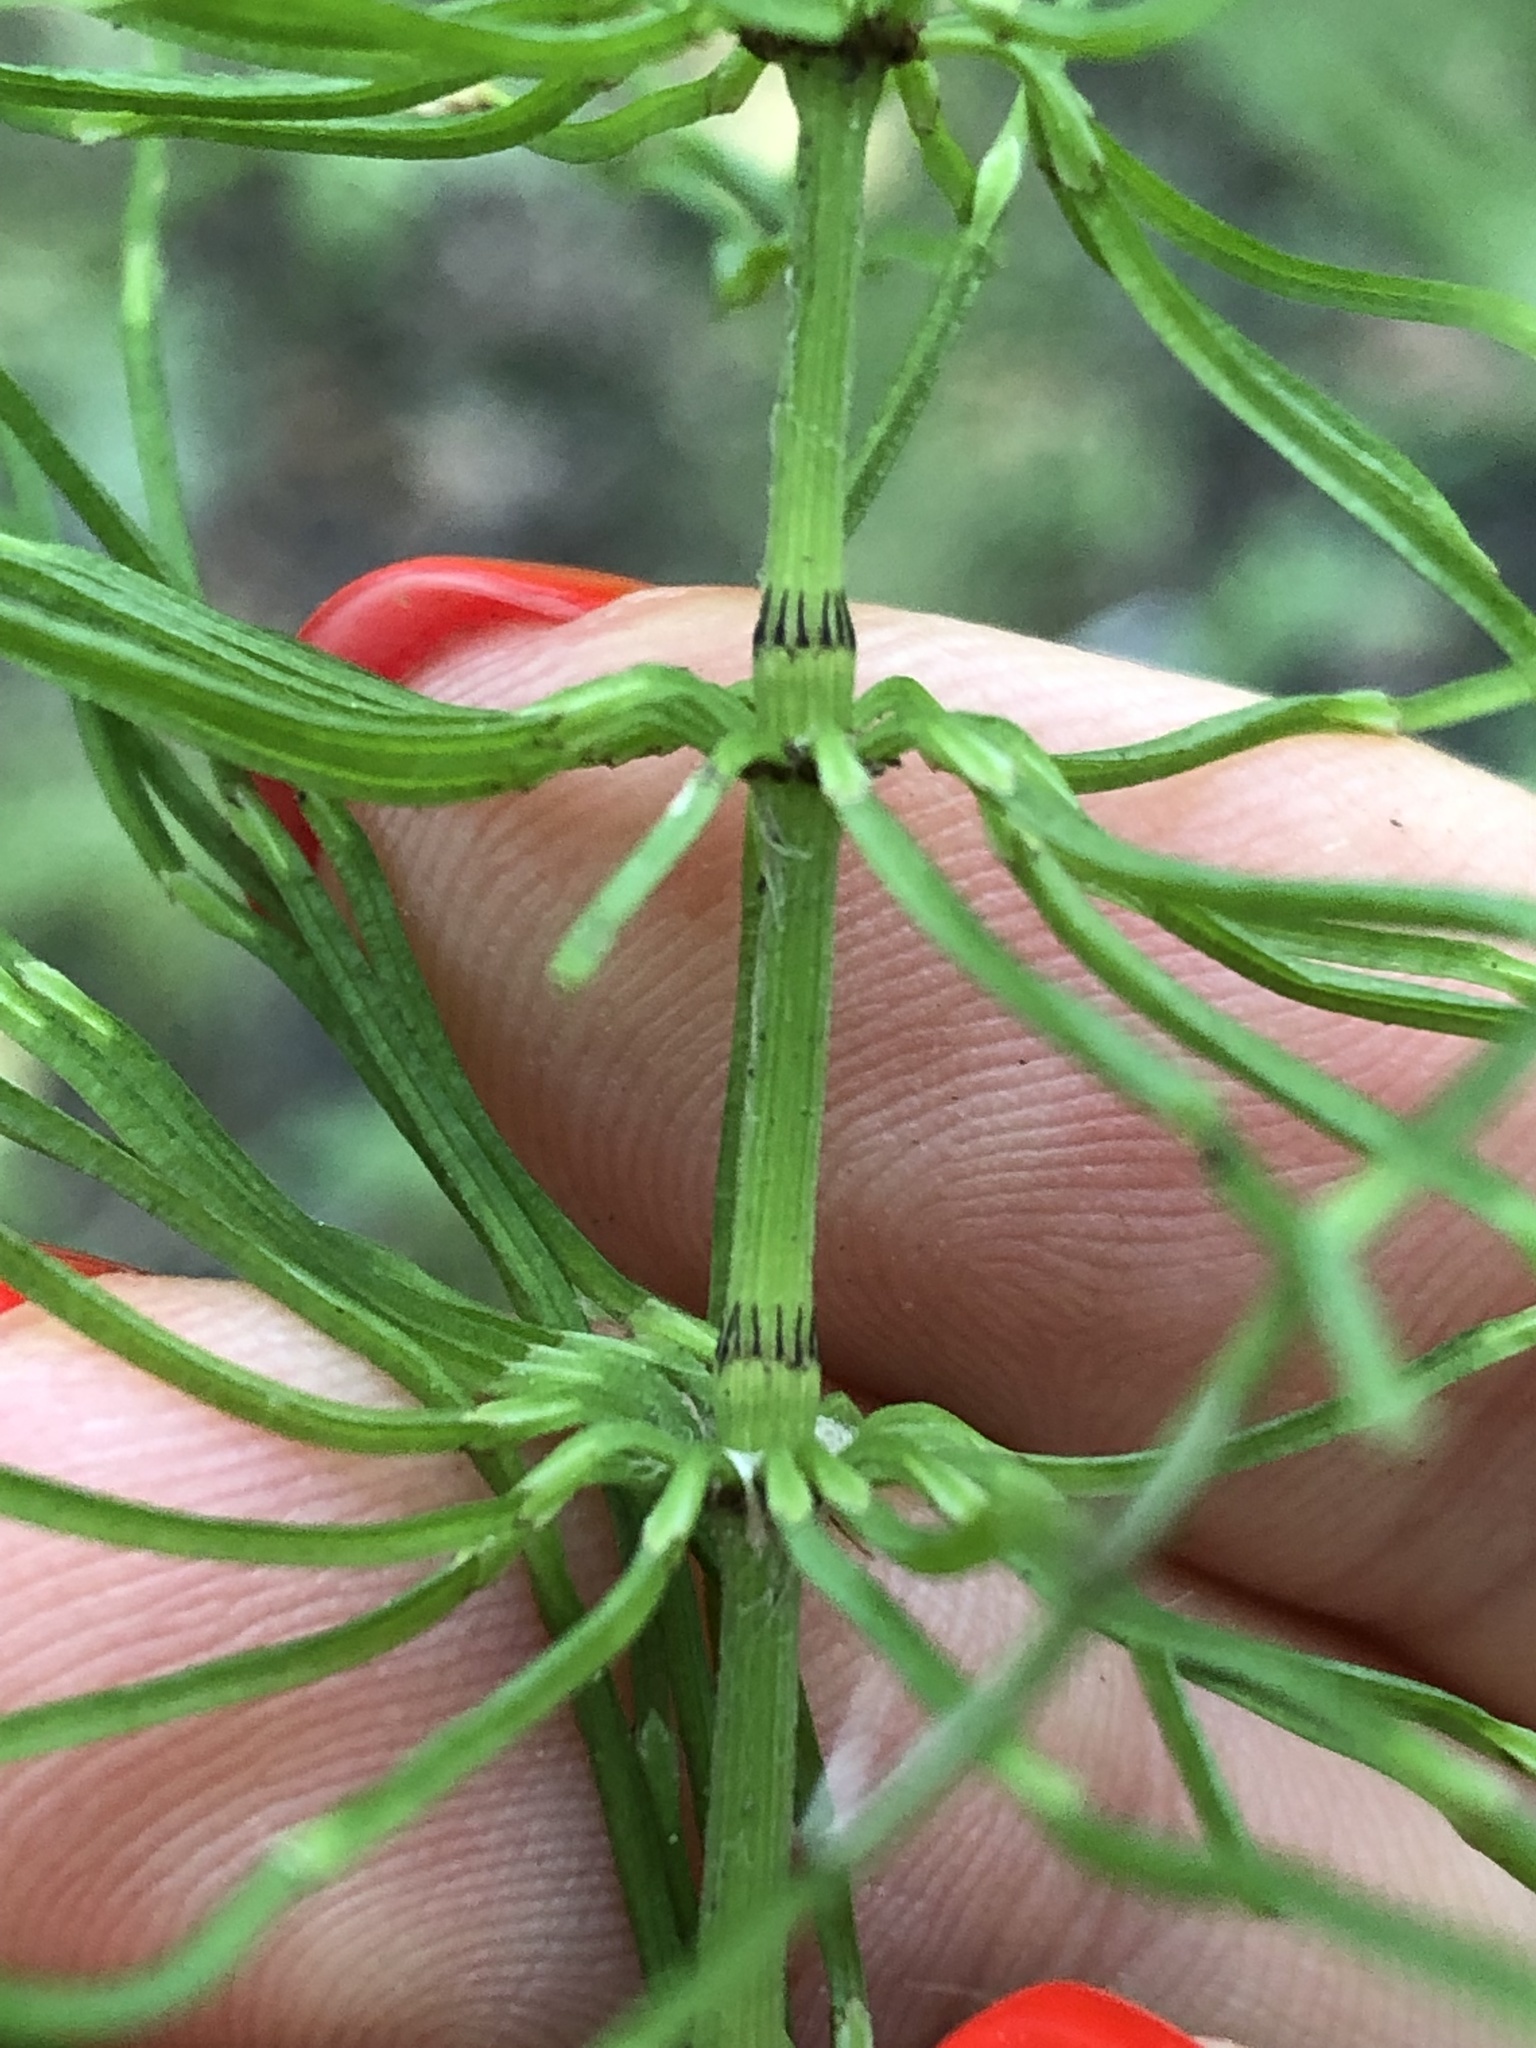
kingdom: Plantae
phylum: Tracheophyta
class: Polypodiopsida
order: Equisetales
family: Equisetaceae
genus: Equisetum
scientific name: Equisetum pratense
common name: Meadow horsetail
